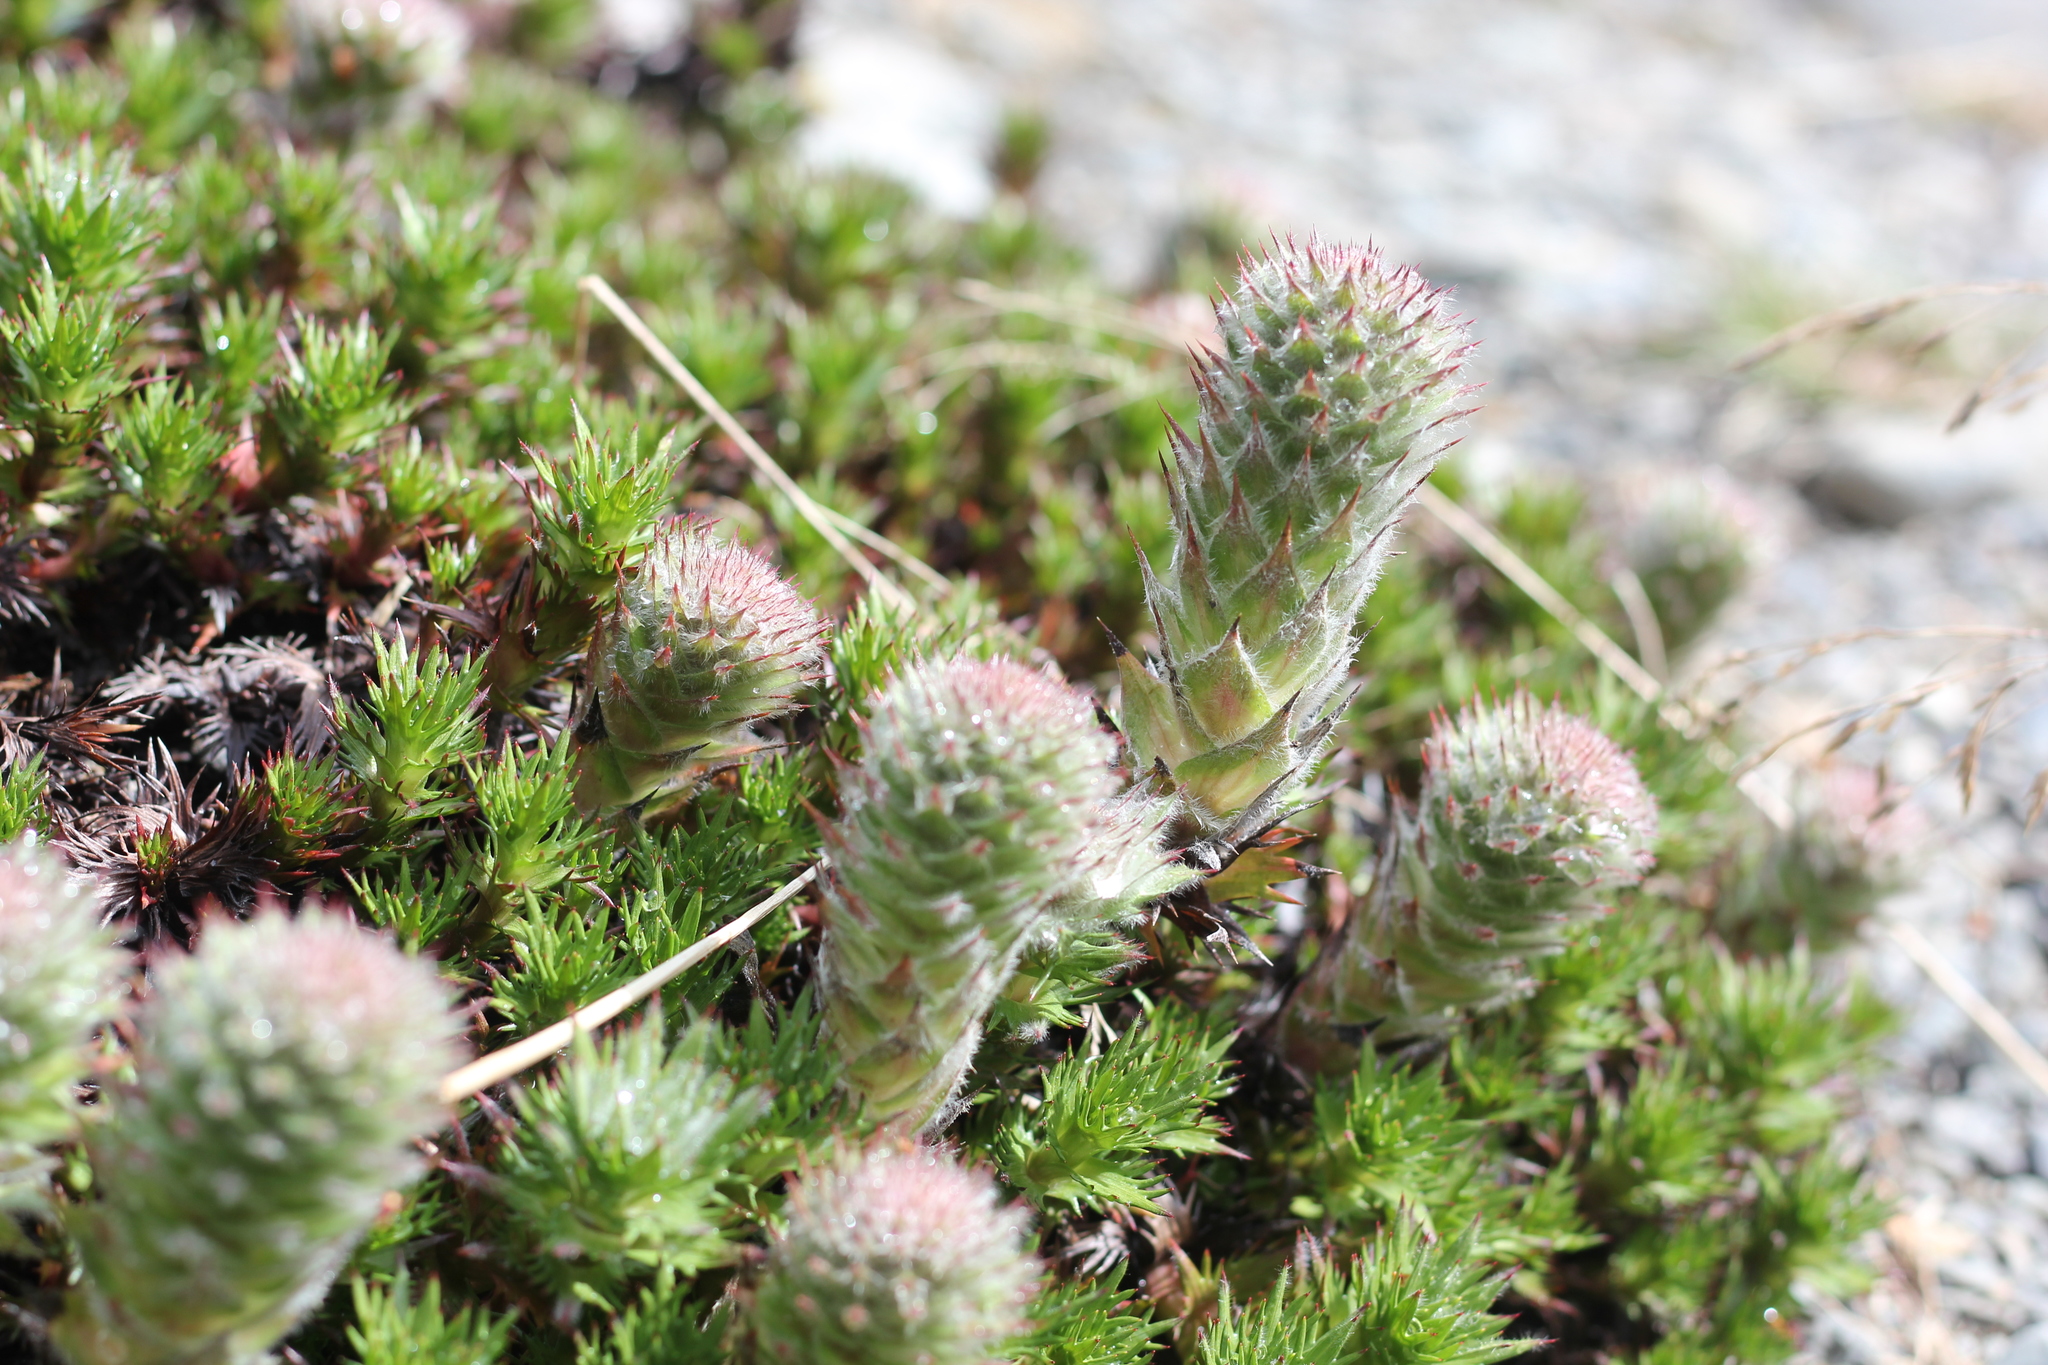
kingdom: Plantae
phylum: Tracheophyta
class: Magnoliopsida
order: Asterales
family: Asteraceae
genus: Nassauvia
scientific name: Nassauvia magellanica
